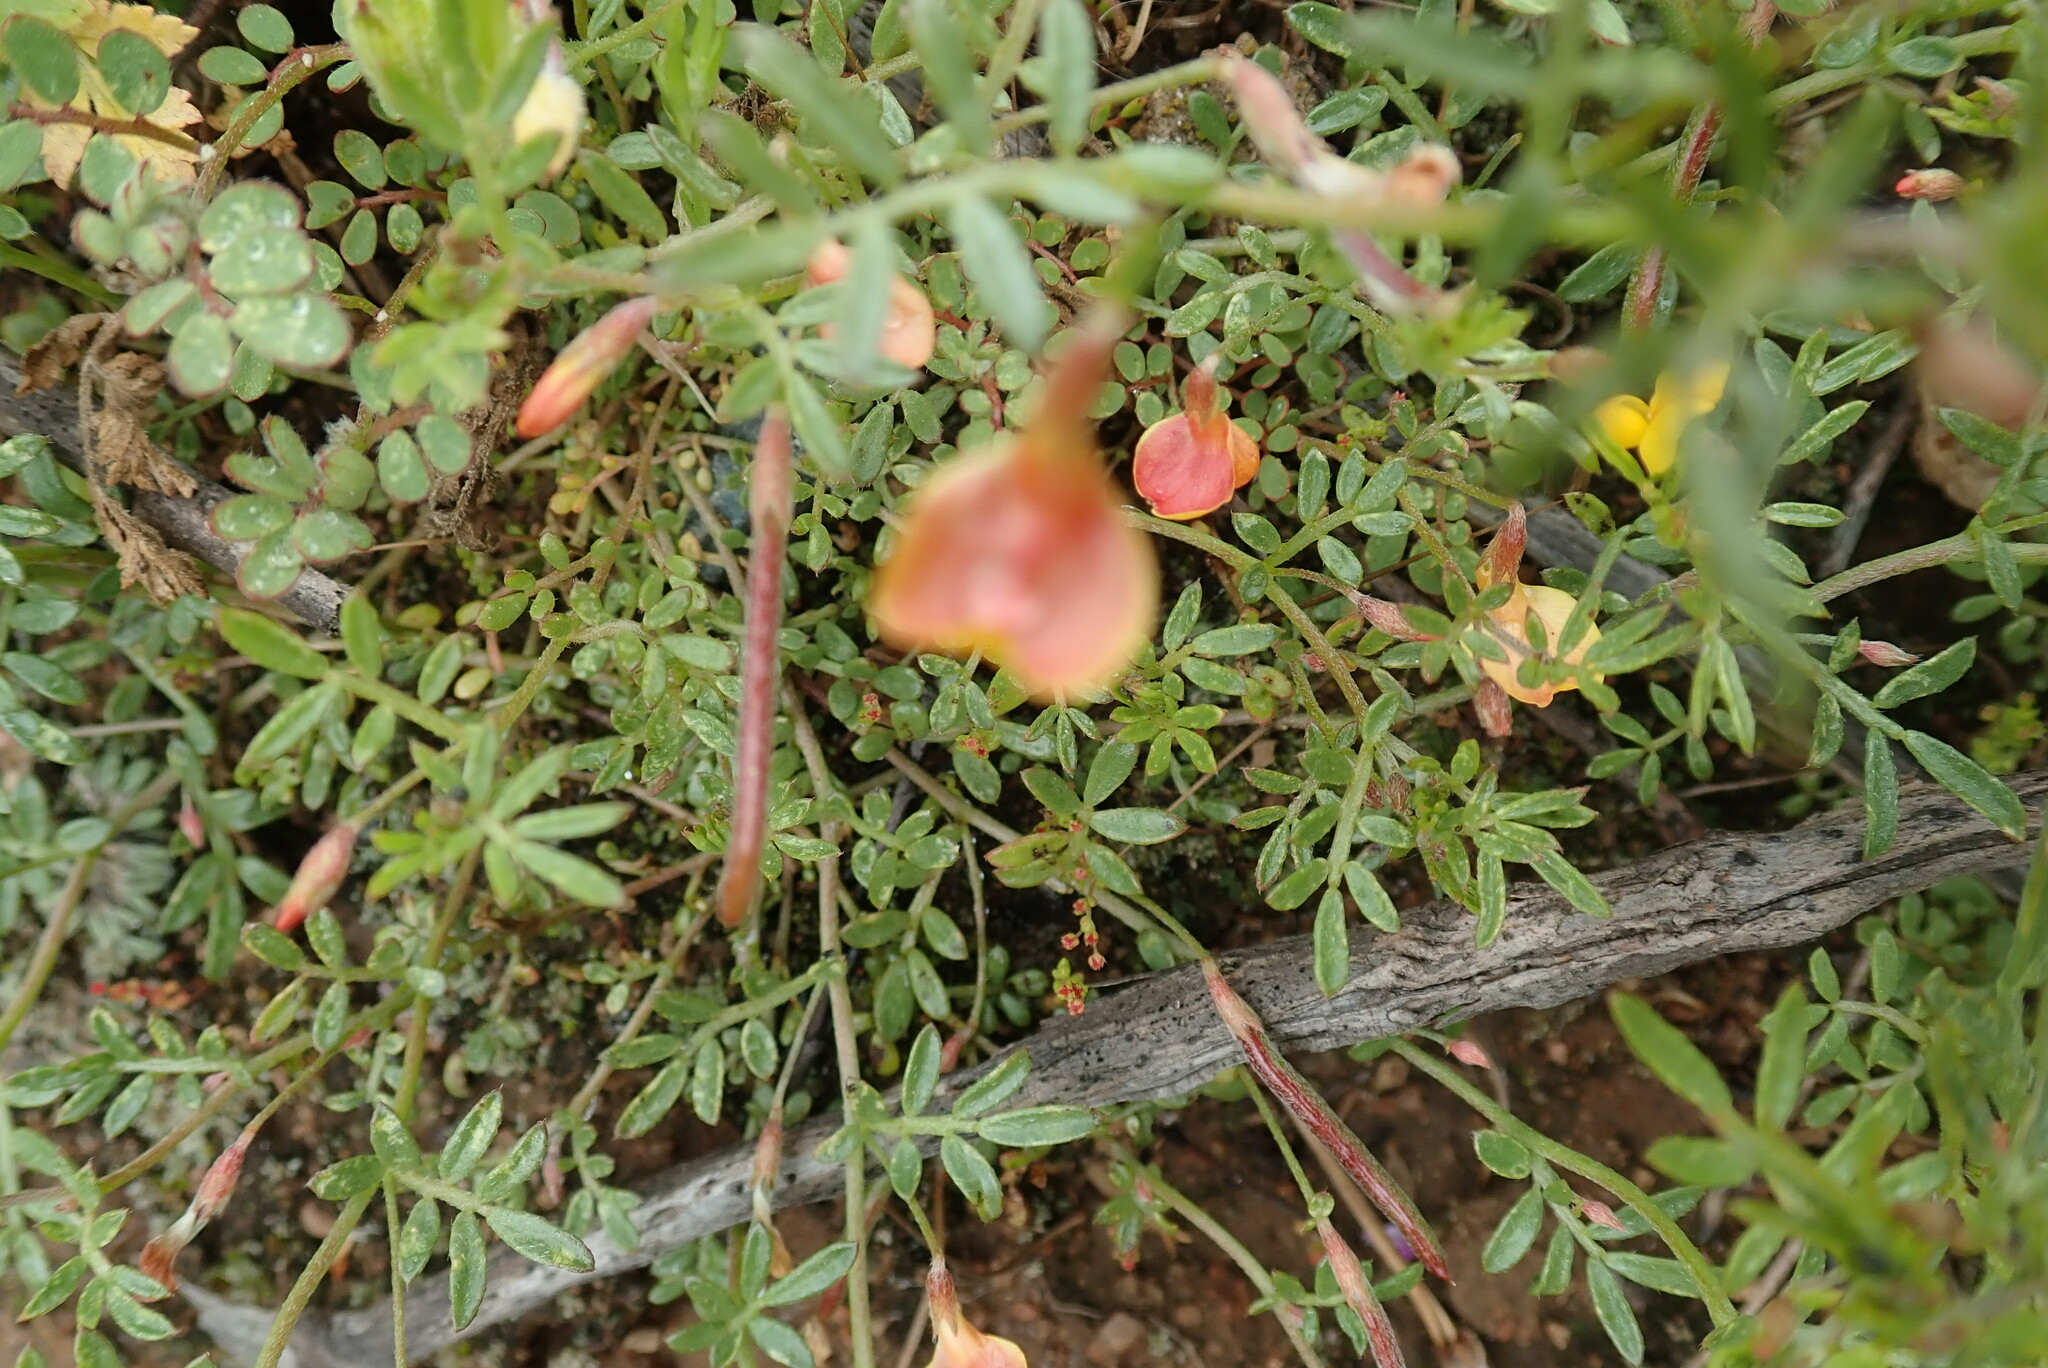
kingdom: Plantae
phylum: Tracheophyta
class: Magnoliopsida
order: Fabales
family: Fabaceae
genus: Acmispon
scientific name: Acmispon strigosus
